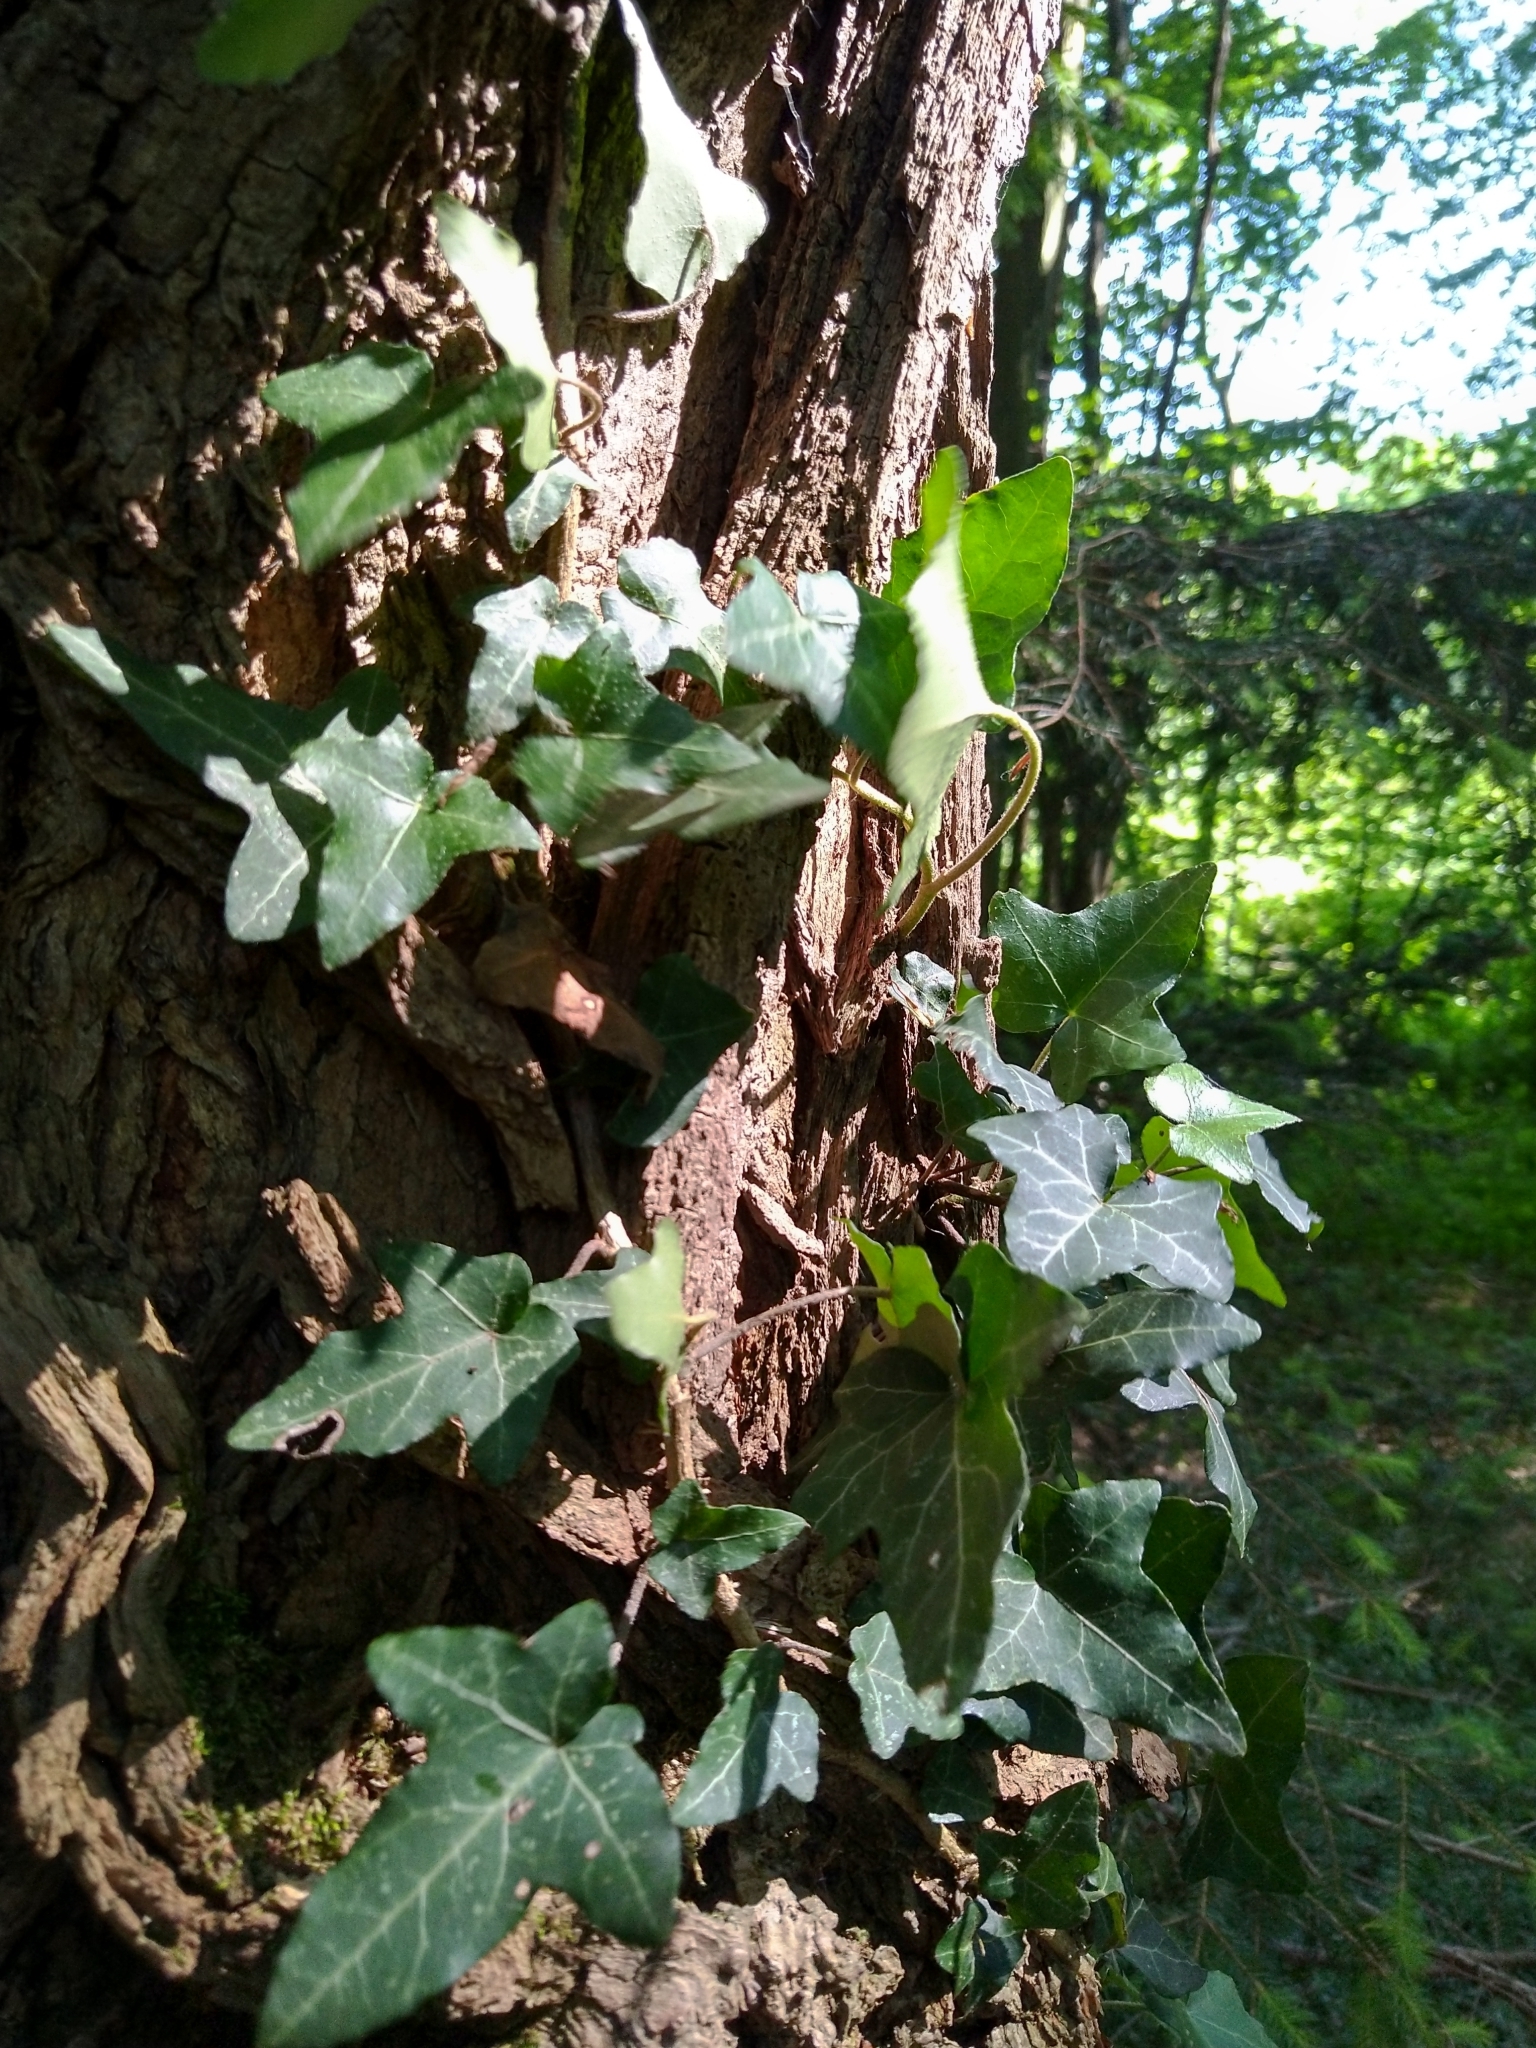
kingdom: Plantae
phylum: Tracheophyta
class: Magnoliopsida
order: Apiales
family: Araliaceae
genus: Hedera
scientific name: Hedera helix
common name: Ivy
